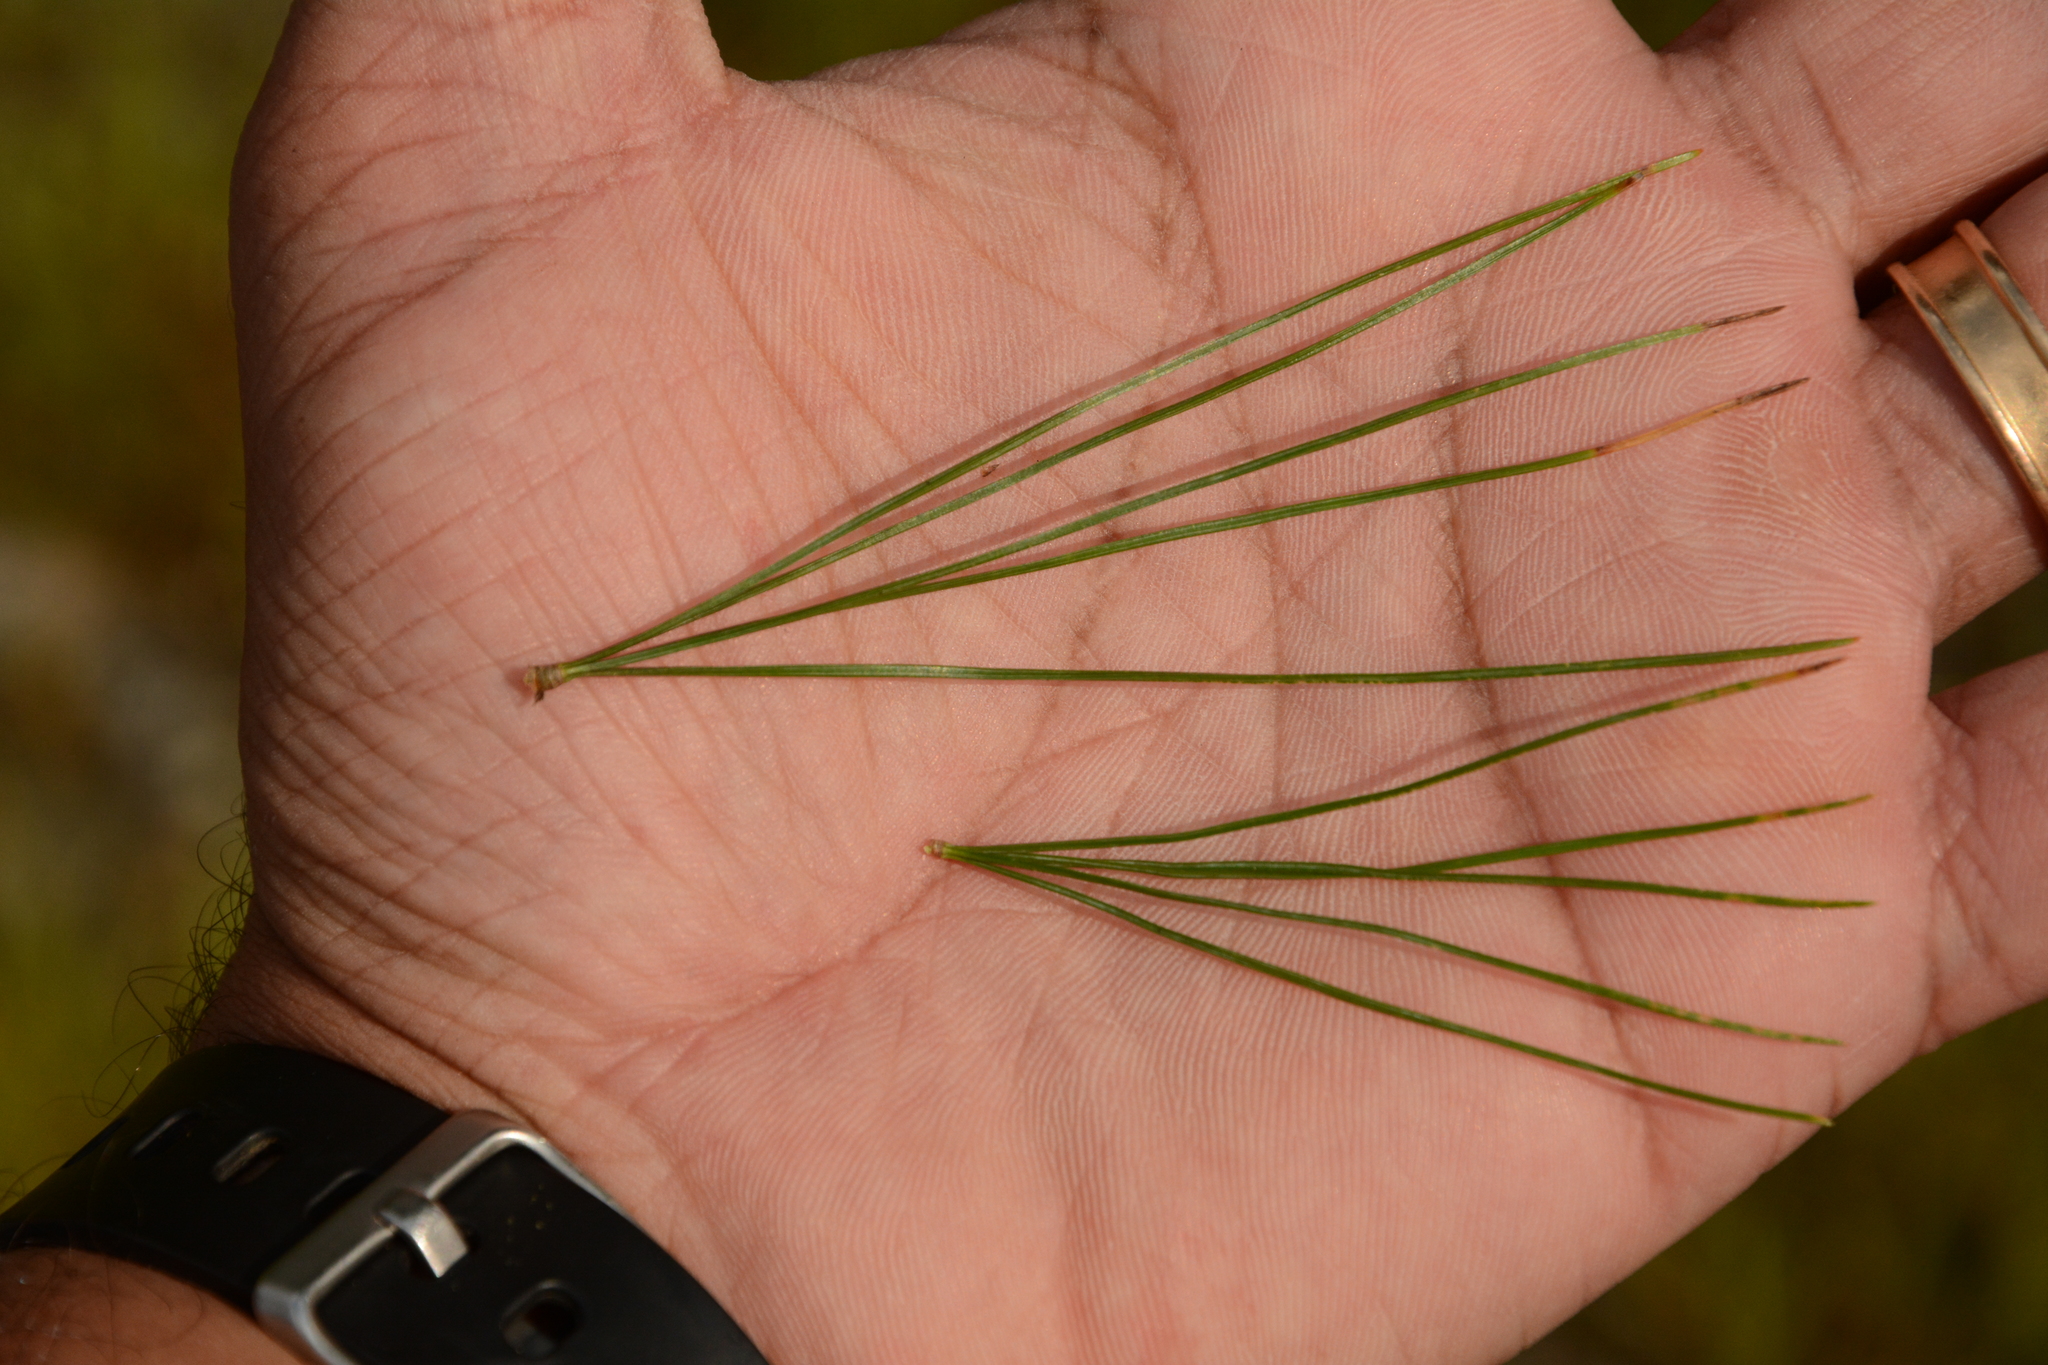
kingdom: Plantae
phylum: Tracheophyta
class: Pinopsida
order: Pinales
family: Pinaceae
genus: Pinus
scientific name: Pinus strobus
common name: Weymouth pine
